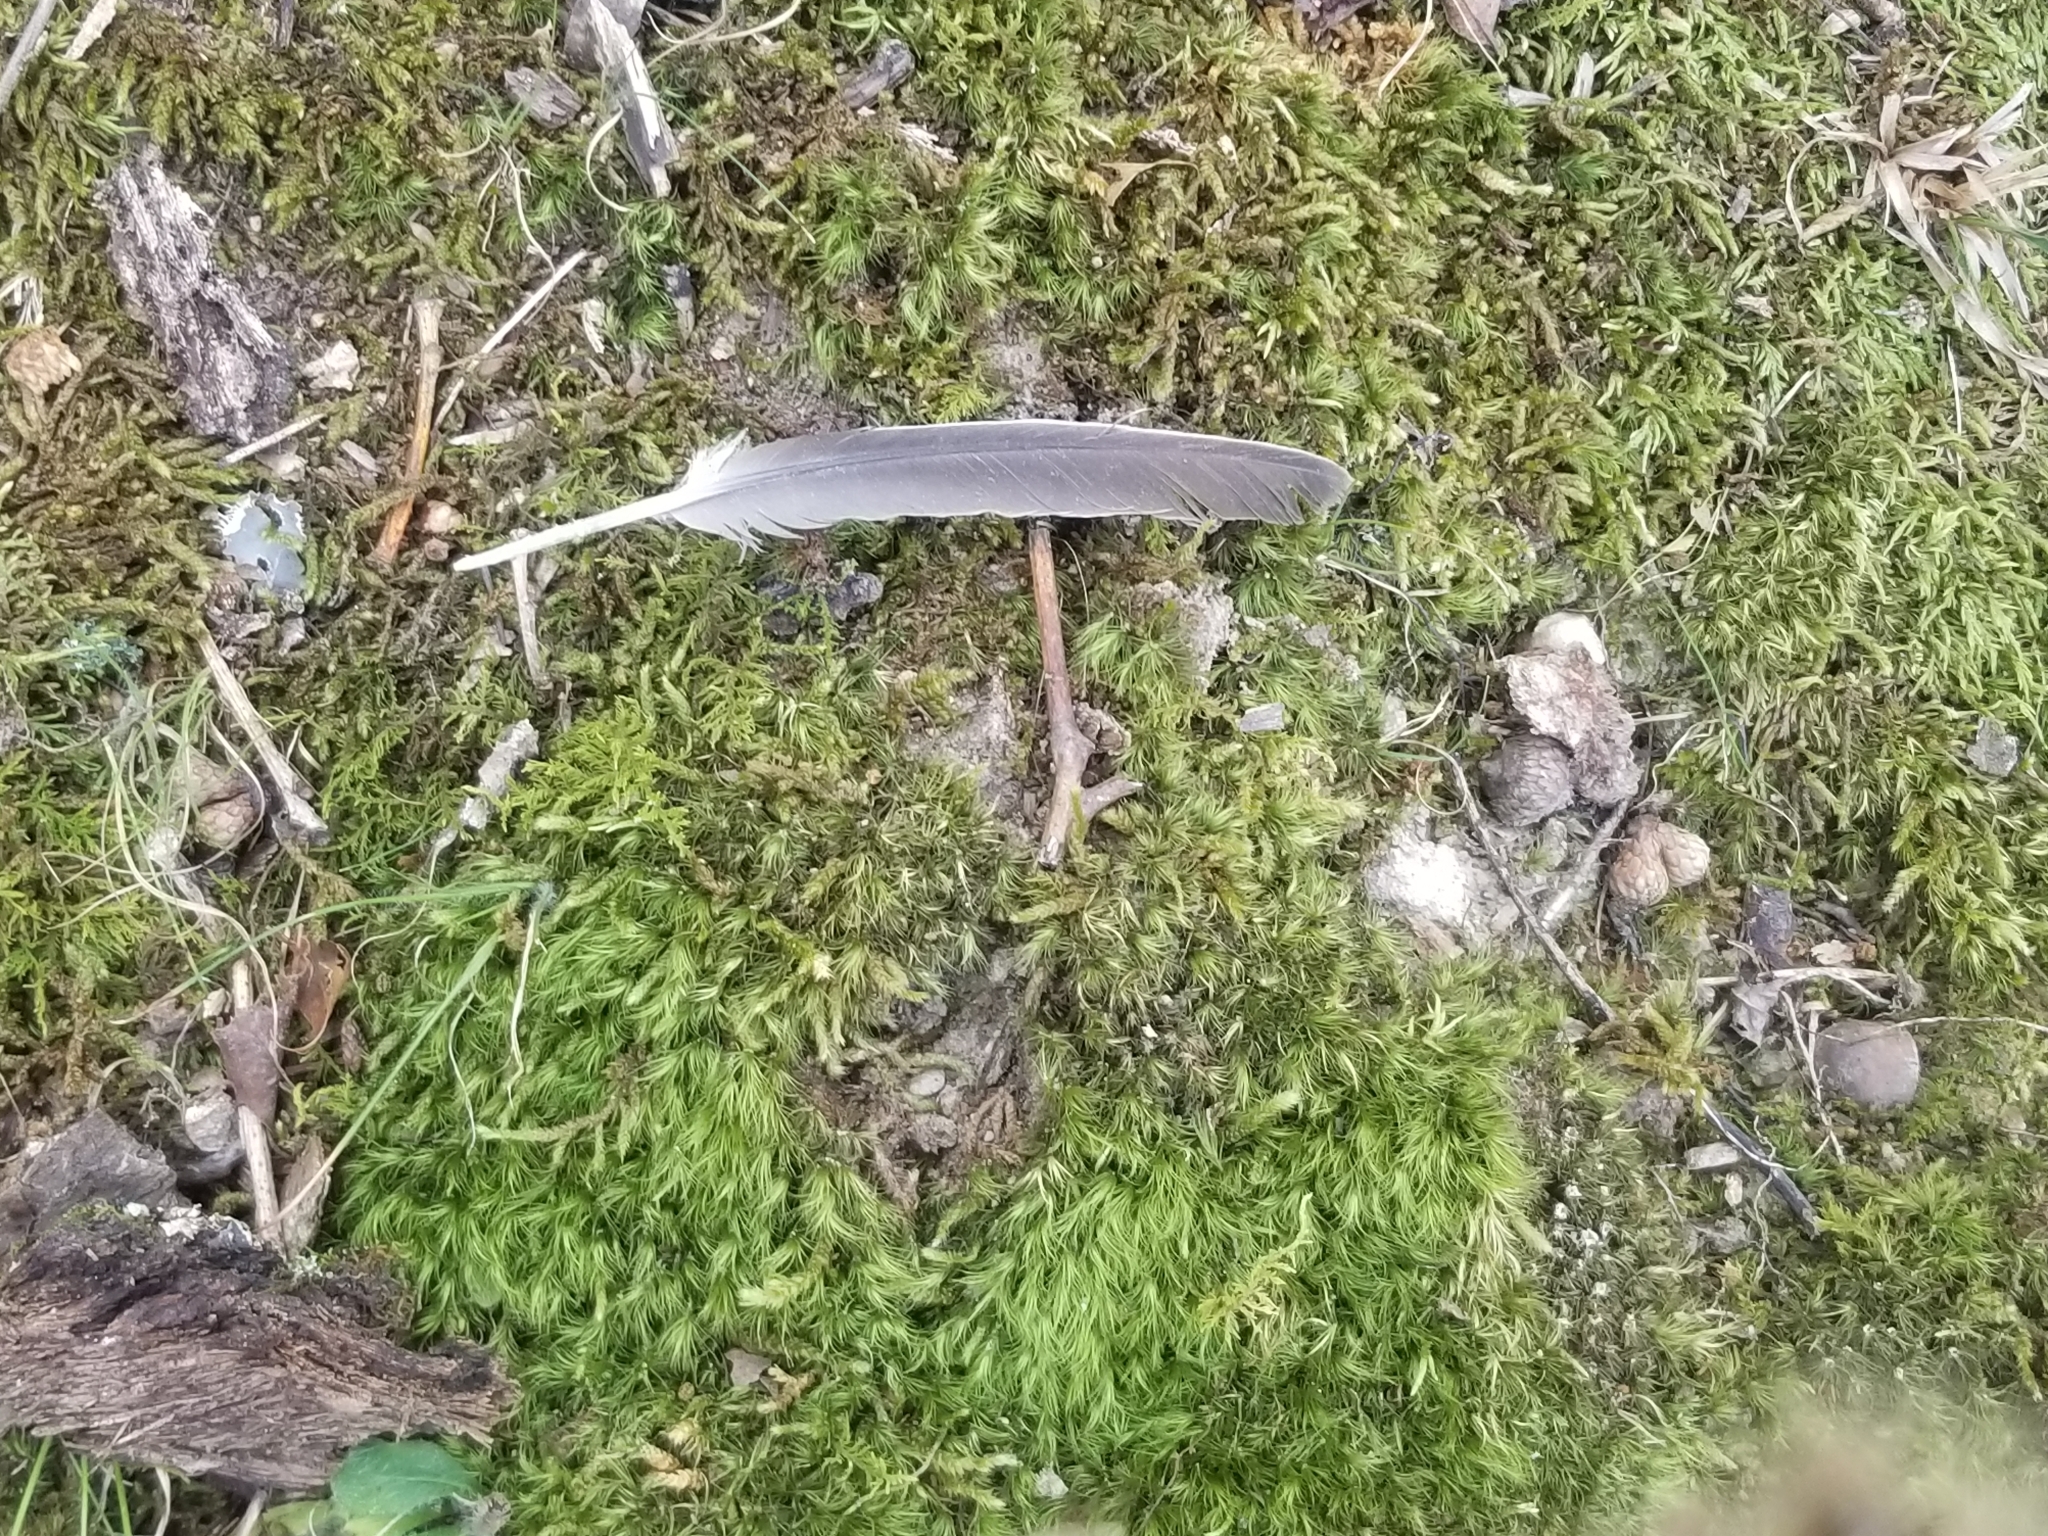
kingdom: Animalia
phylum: Chordata
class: Aves
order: Columbiformes
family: Columbidae
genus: Zenaida
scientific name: Zenaida macroura
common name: Mourning dove
